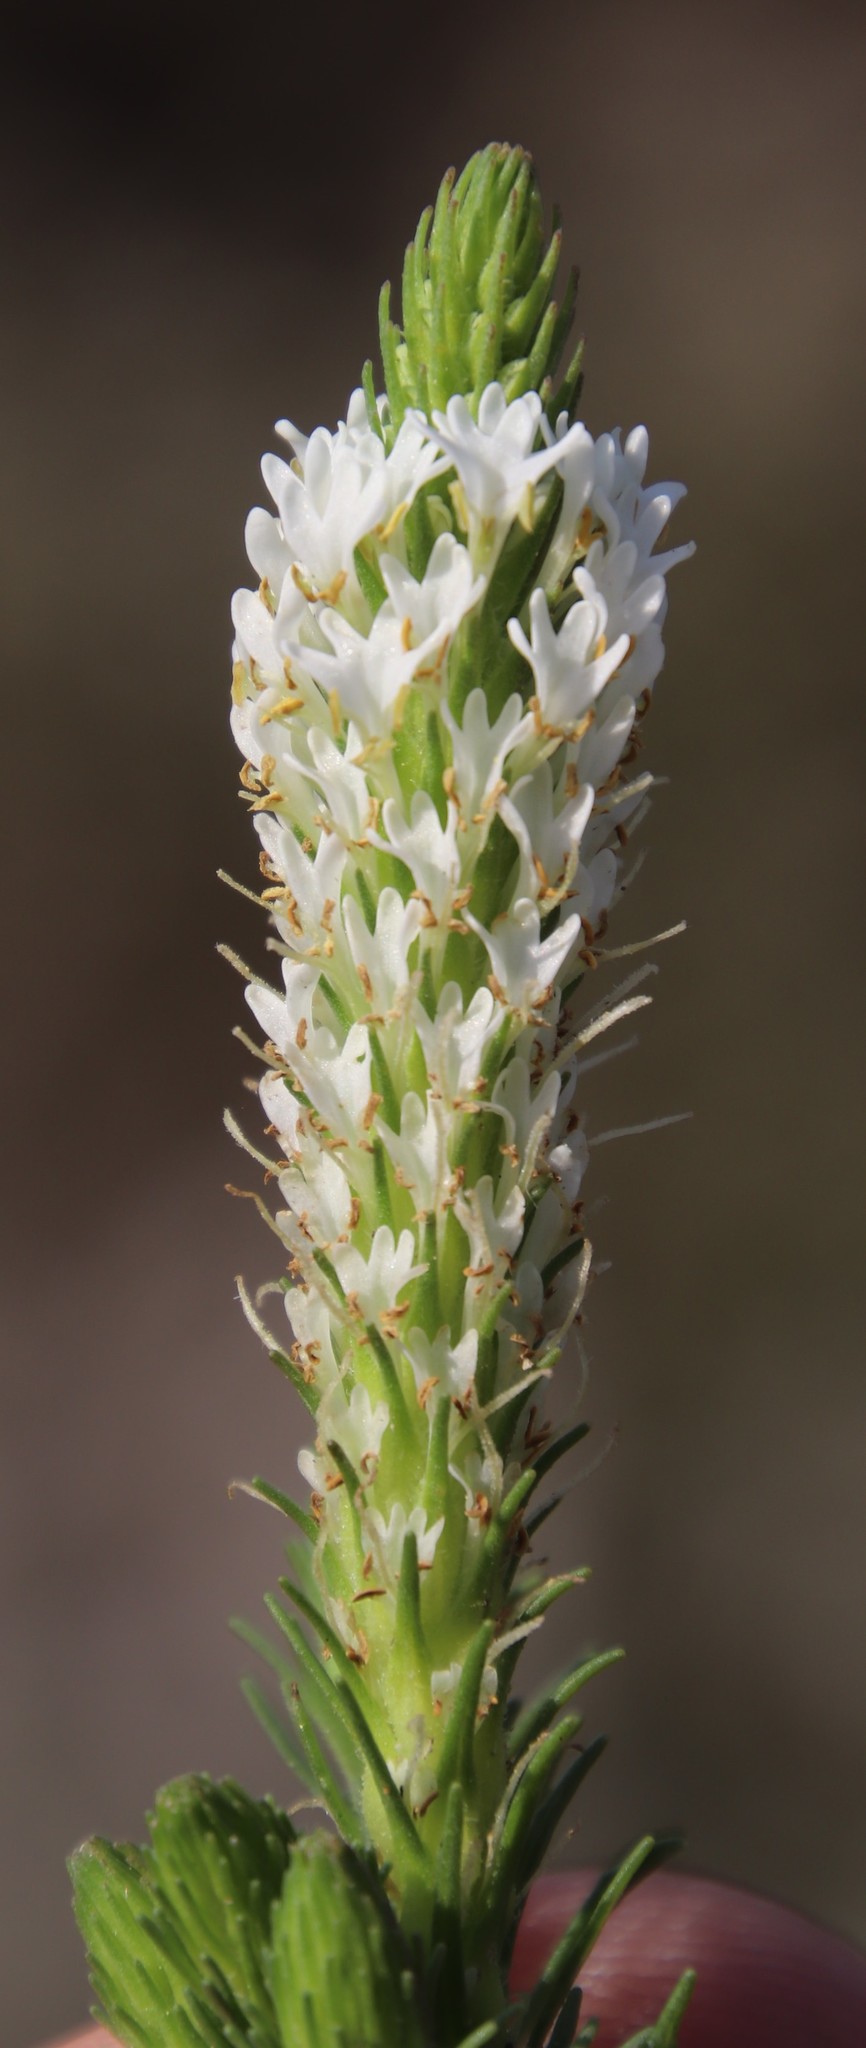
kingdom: Plantae
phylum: Tracheophyta
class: Magnoliopsida
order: Lamiales
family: Scrophulariaceae
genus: Dischisma
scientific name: Dischisma ciliatum
